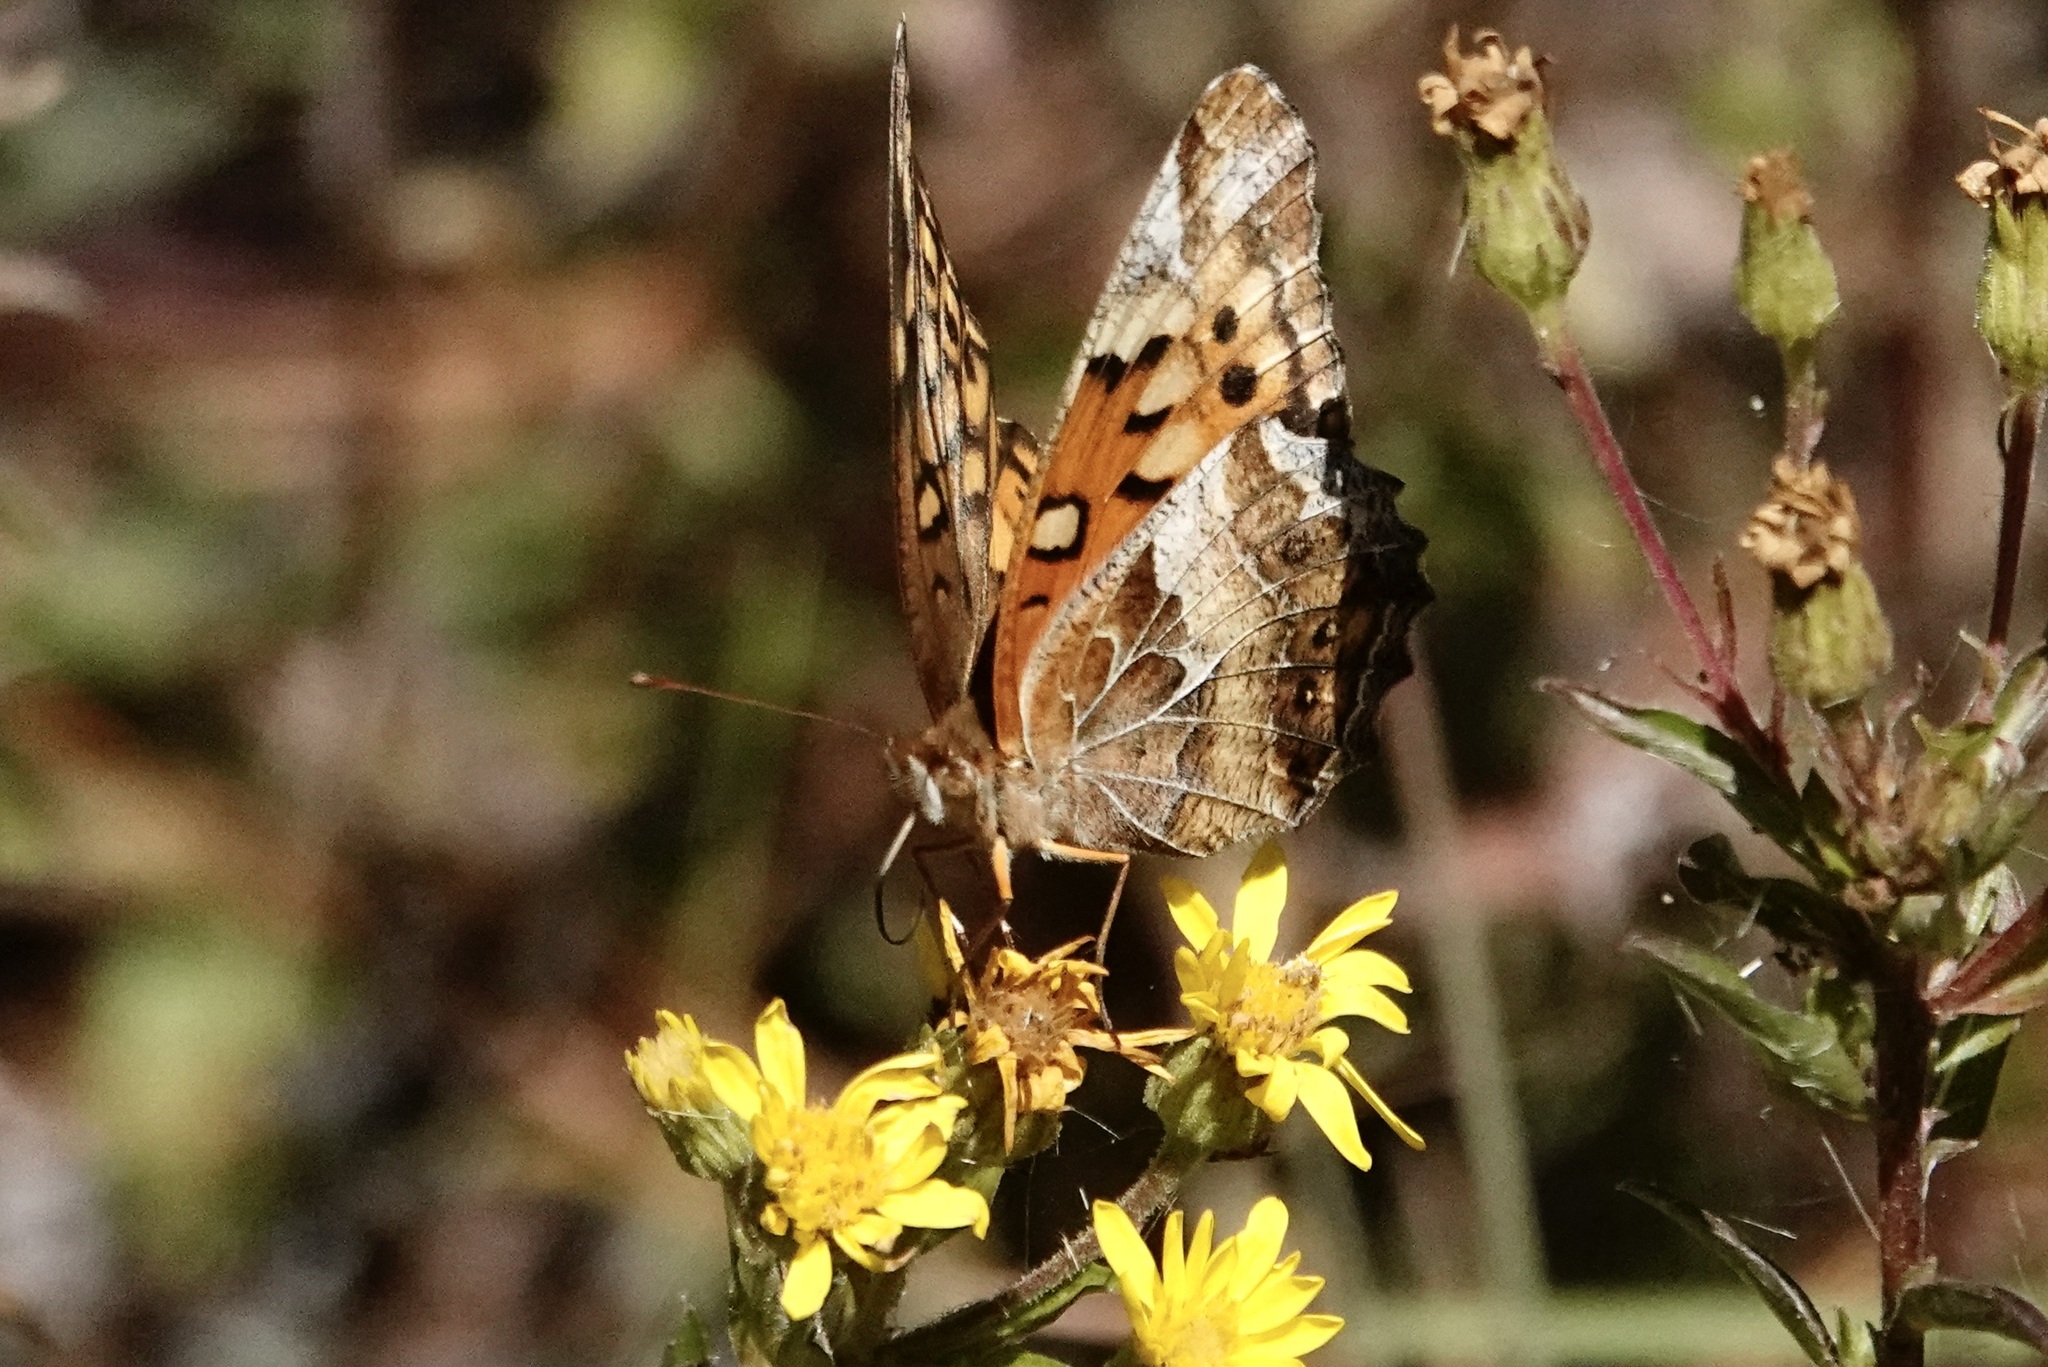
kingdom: Animalia
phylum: Arthropoda
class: Insecta
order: Lepidoptera
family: Nymphalidae
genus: Euptoieta
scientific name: Euptoieta claudia
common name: Variegated fritillary
